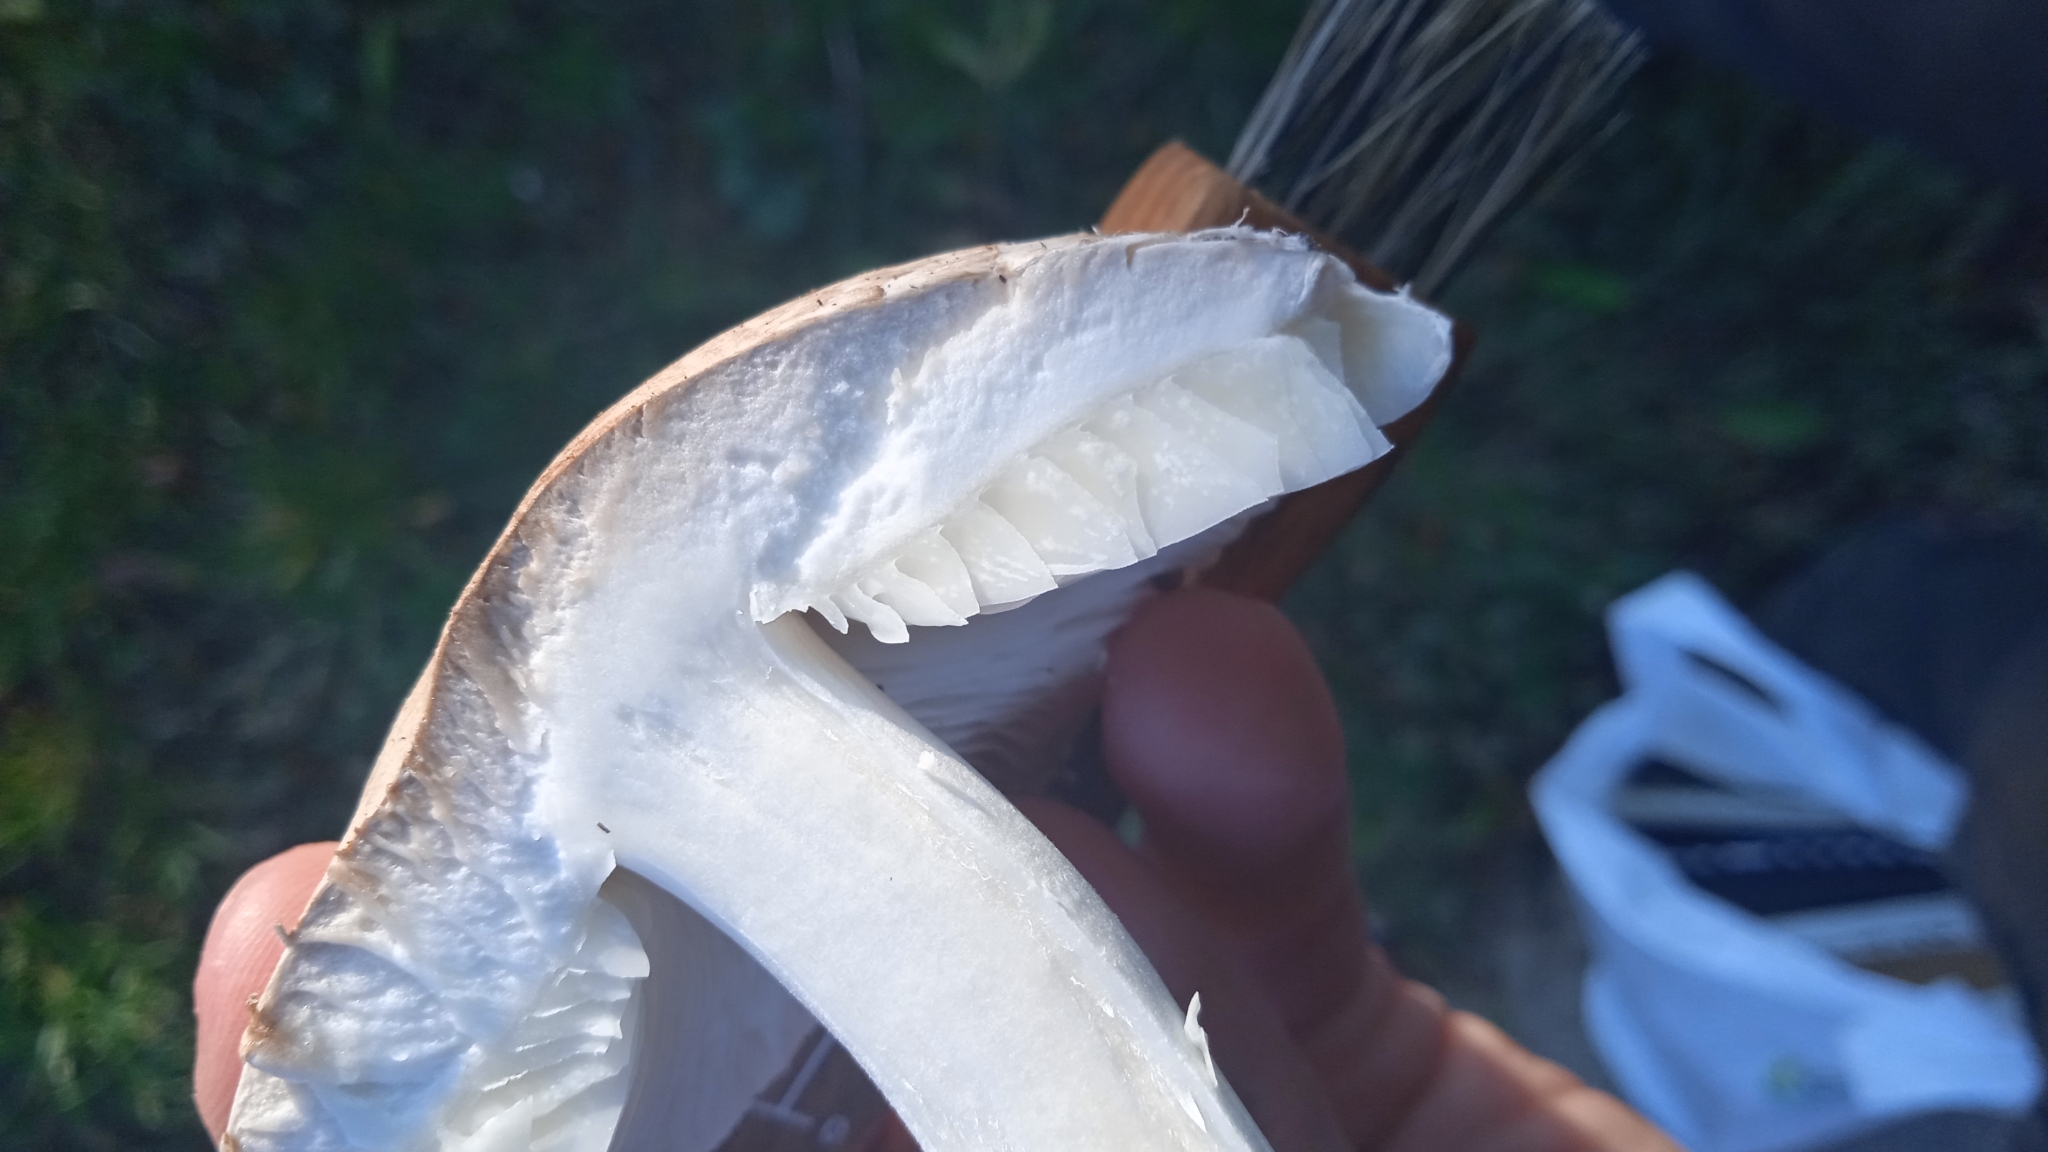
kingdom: Fungi
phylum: Basidiomycota
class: Agaricomycetes
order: Agaricales
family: Agaricaceae
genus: Leucoagaricus
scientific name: Leucoagaricus barssii
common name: Smoky dapperling
